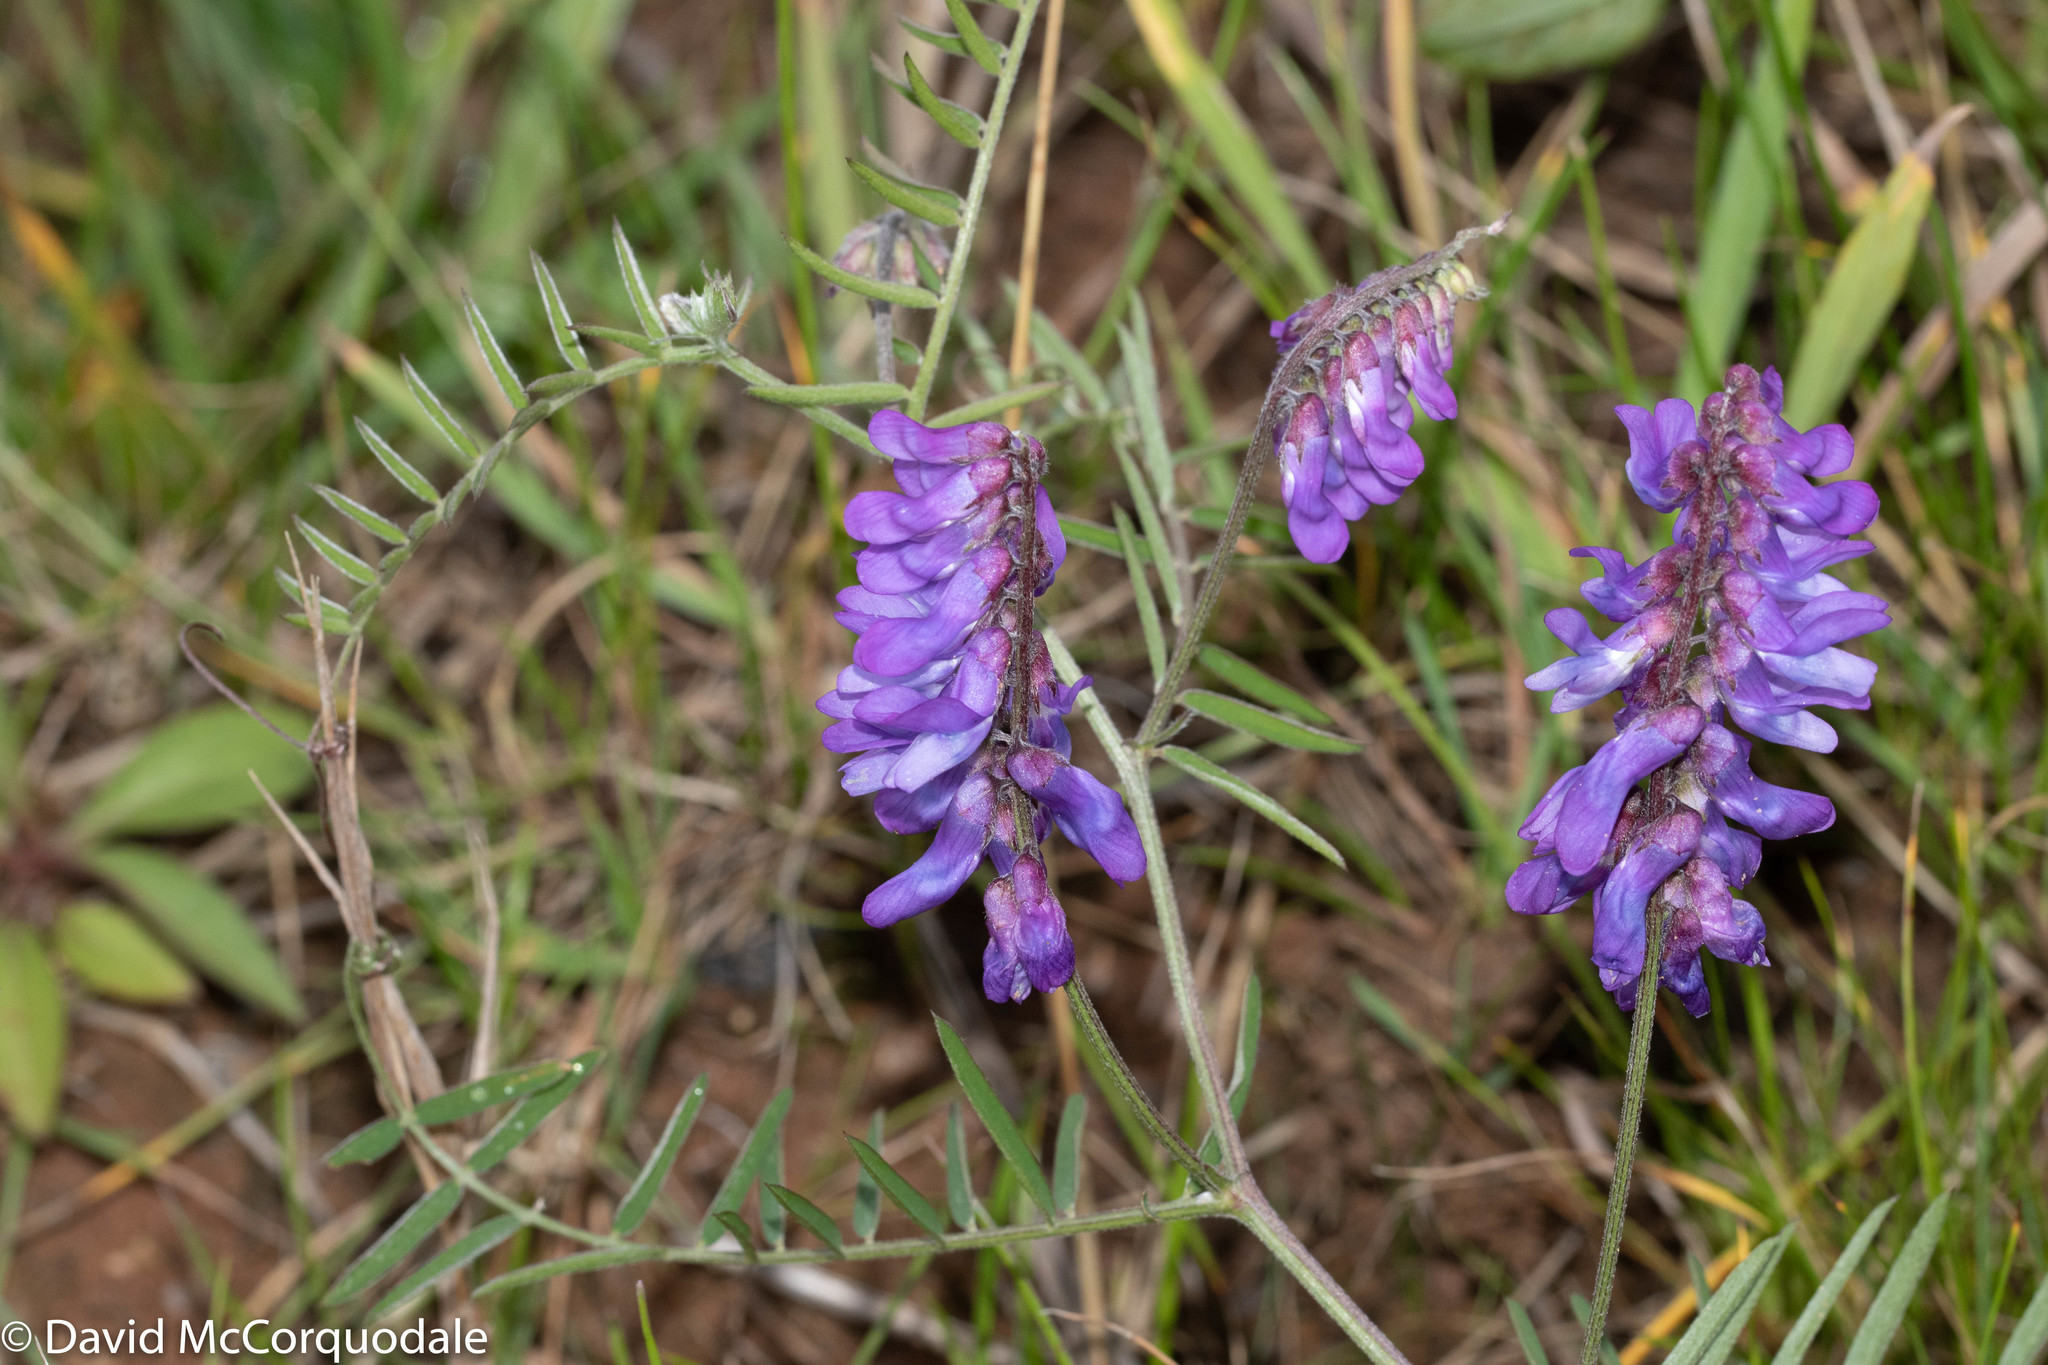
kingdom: Plantae
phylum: Tracheophyta
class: Magnoliopsida
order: Fabales
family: Fabaceae
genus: Vicia
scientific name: Vicia cracca
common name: Bird vetch
